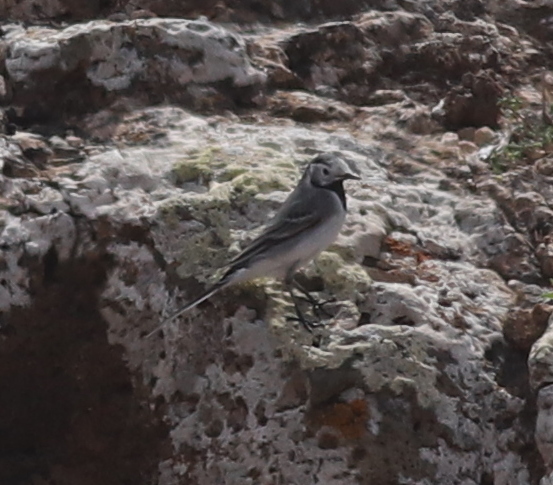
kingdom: Animalia
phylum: Chordata
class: Aves
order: Passeriformes
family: Motacillidae
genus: Motacilla
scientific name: Motacilla alba
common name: White wagtail
